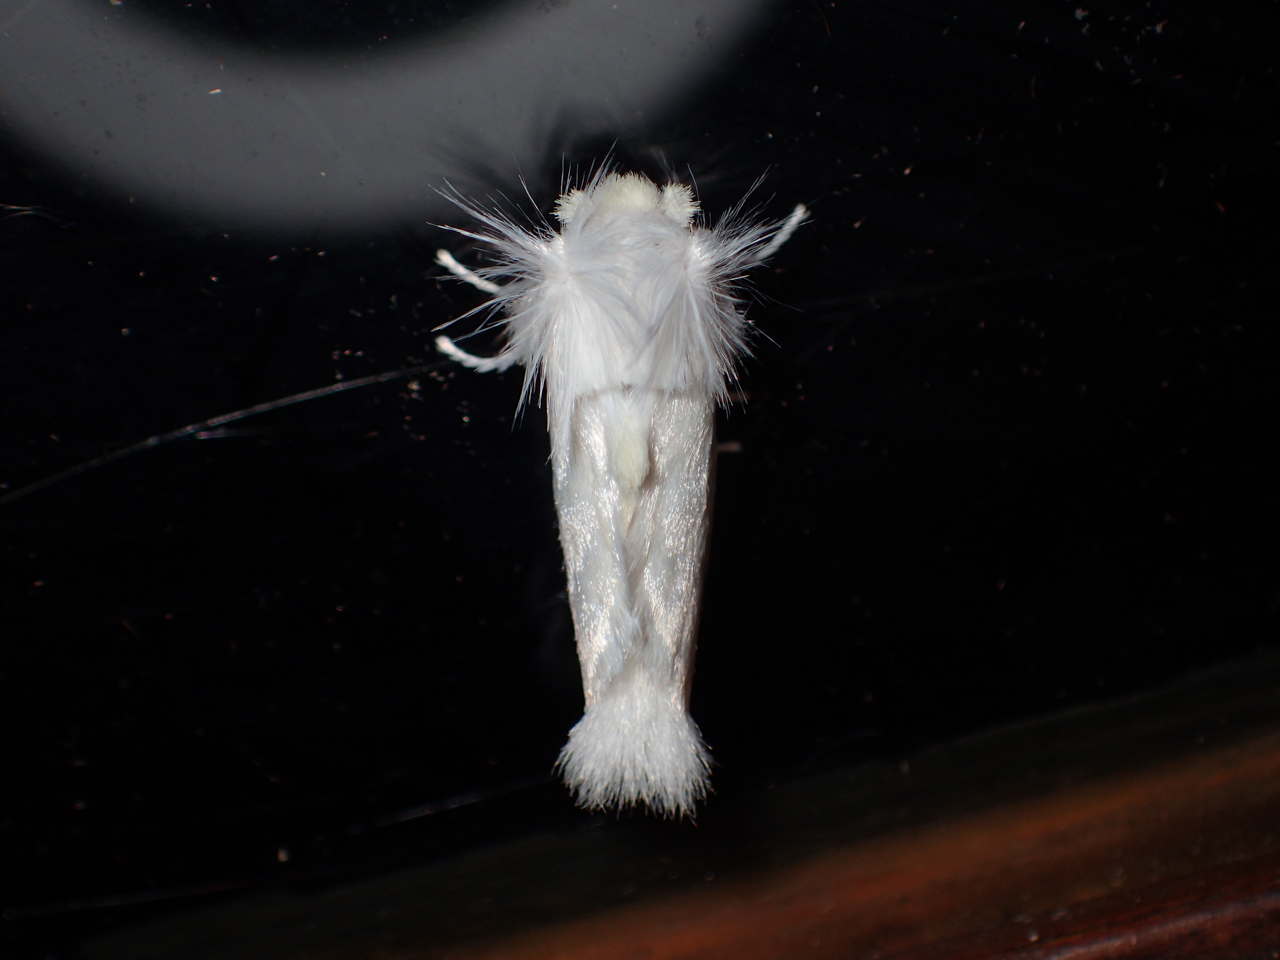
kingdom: Animalia
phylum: Arthropoda
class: Insecta
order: Lepidoptera
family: Megalopygidae
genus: Norape
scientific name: Norape cretata
